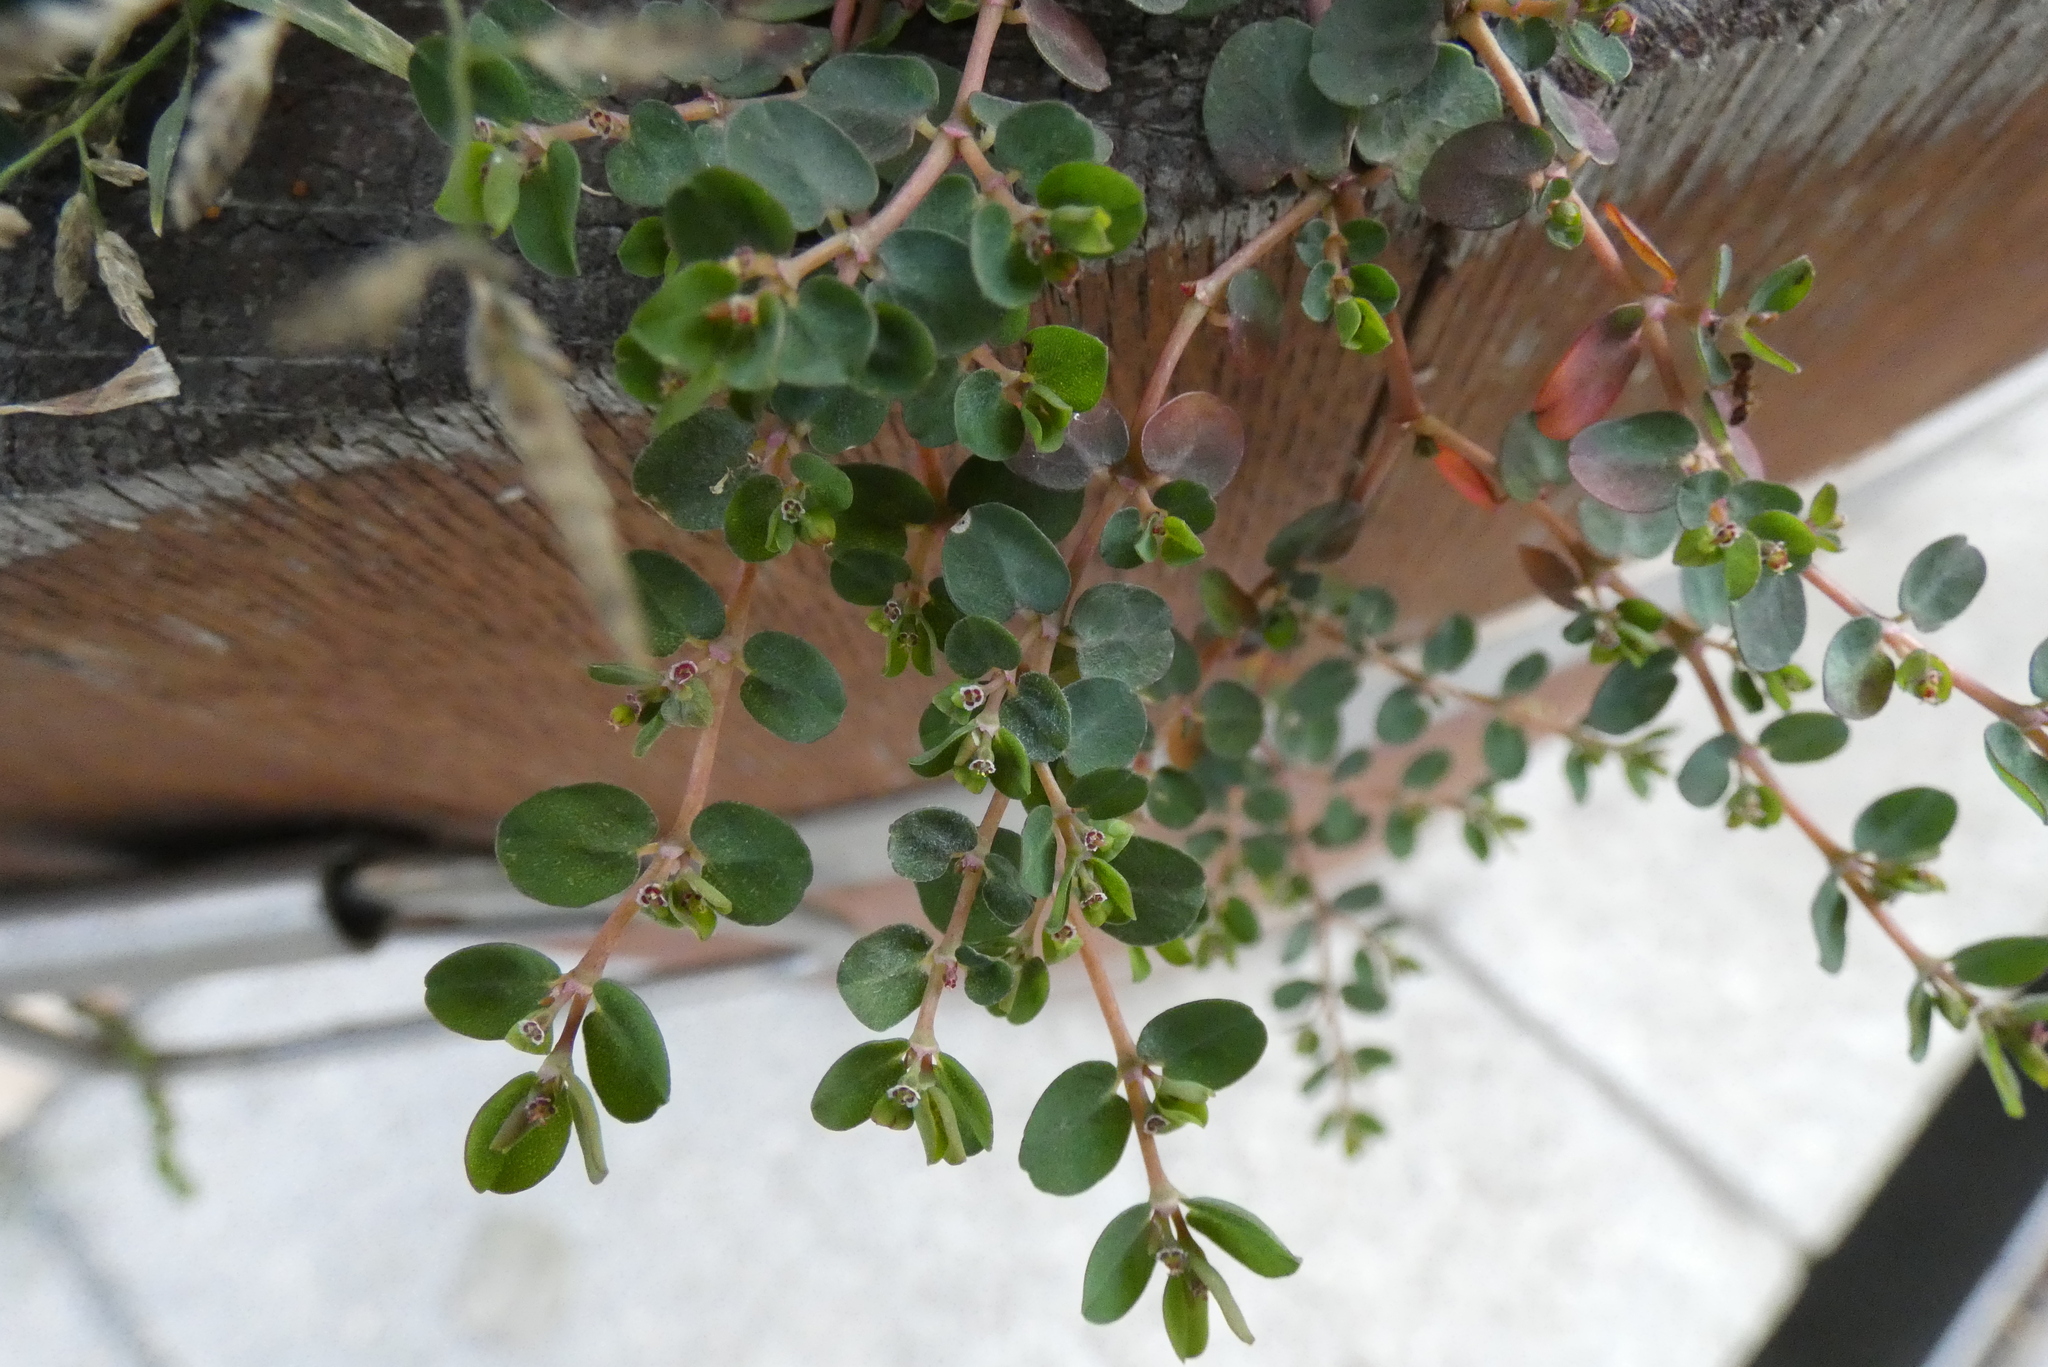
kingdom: Plantae
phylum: Tracheophyta
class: Magnoliopsida
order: Malpighiales
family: Euphorbiaceae
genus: Euphorbia
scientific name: Euphorbia serpens
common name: Matted sandmat
